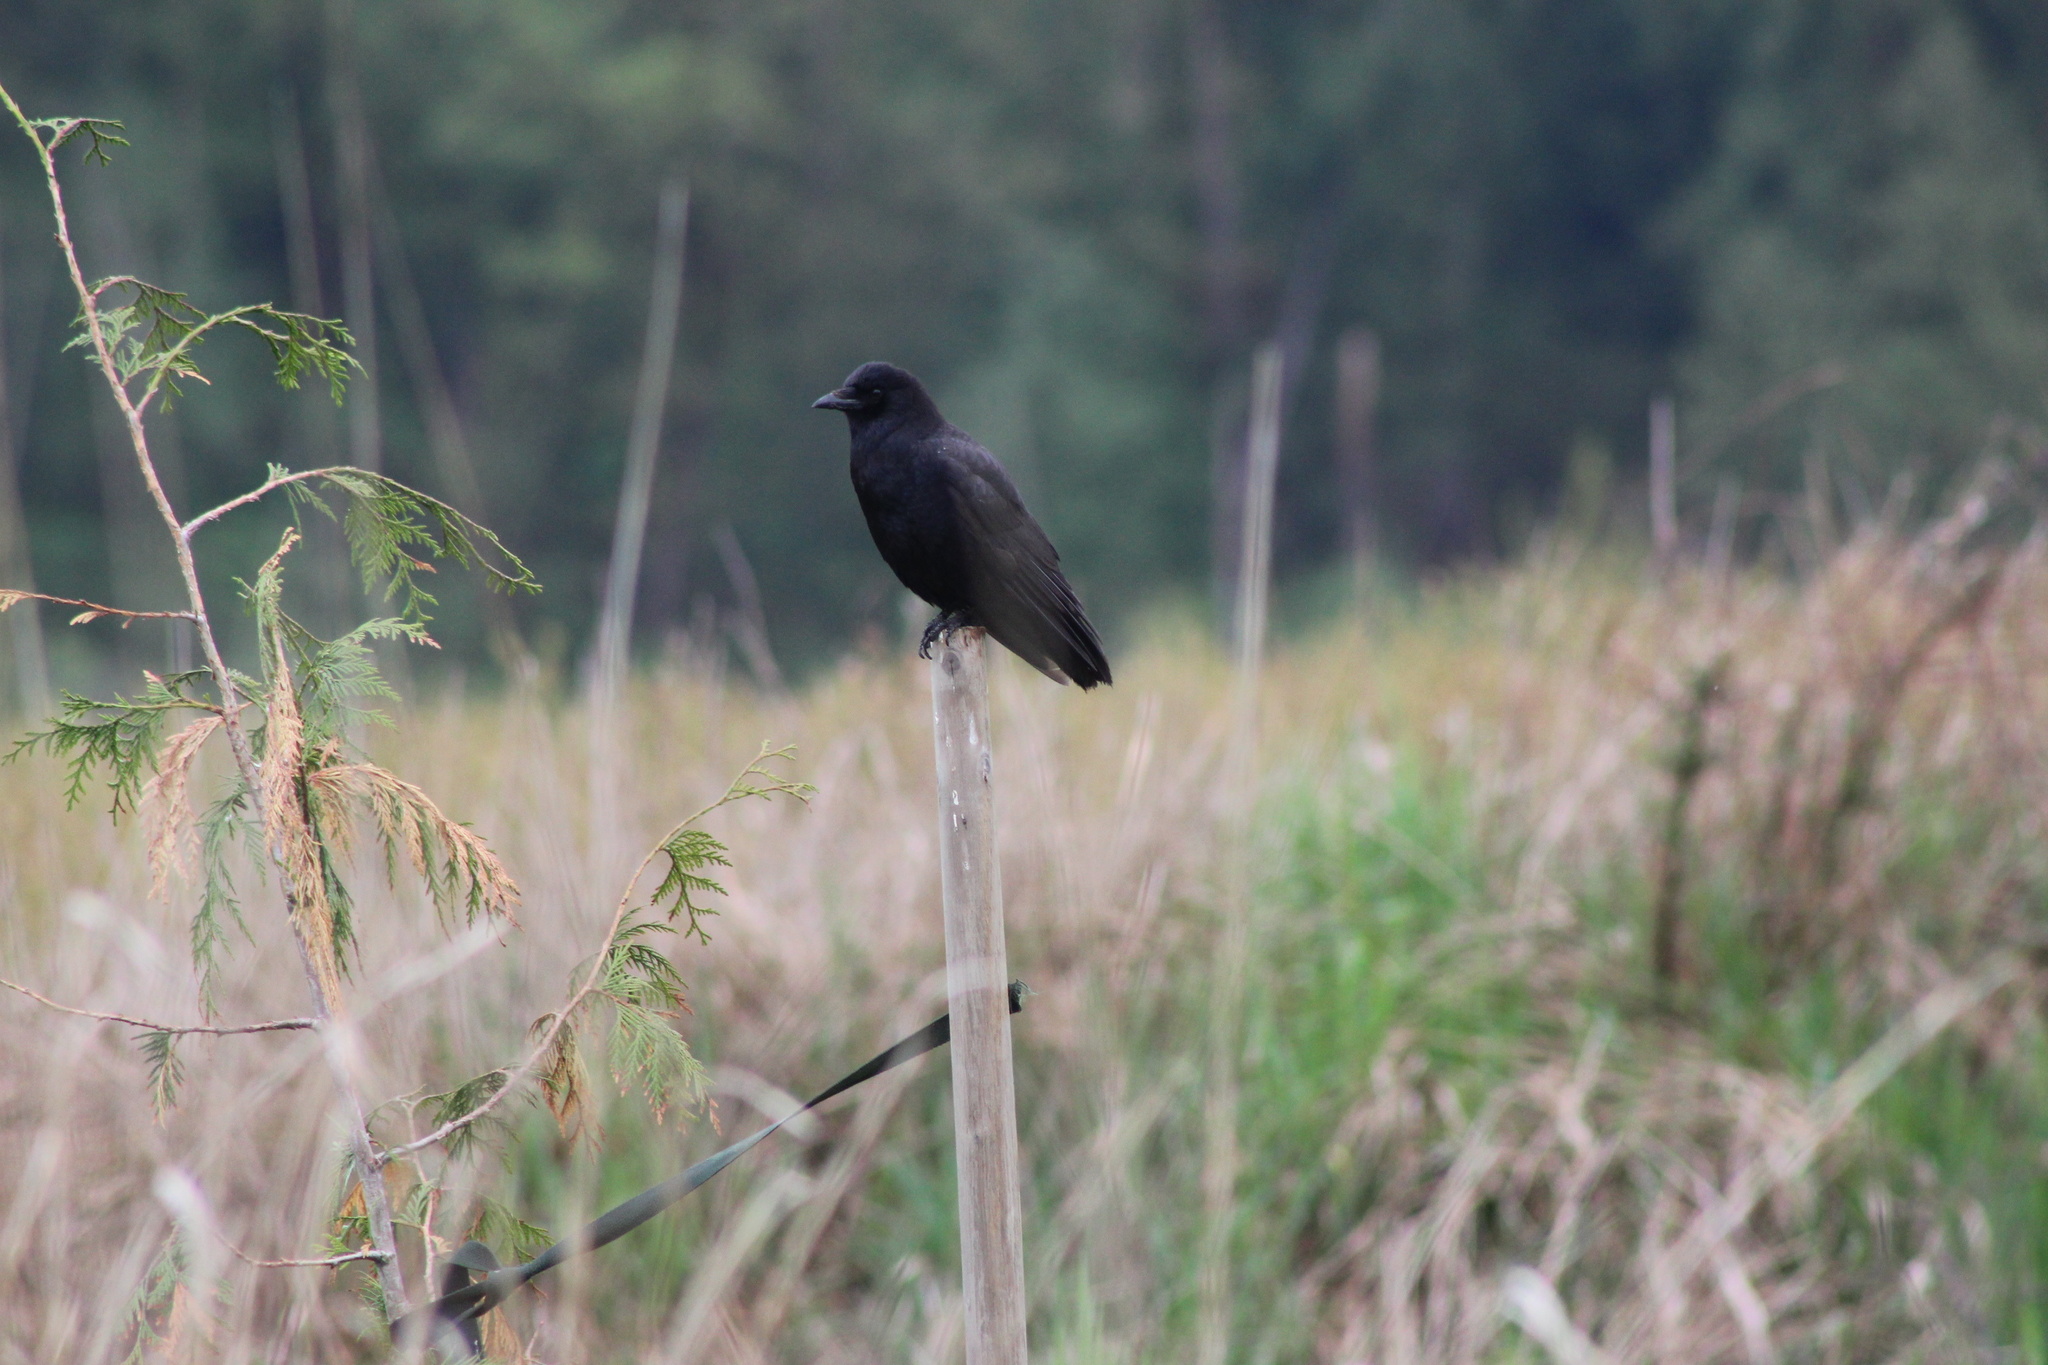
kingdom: Animalia
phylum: Chordata
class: Aves
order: Passeriformes
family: Corvidae
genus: Corvus
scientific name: Corvus brachyrhynchos
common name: American crow
